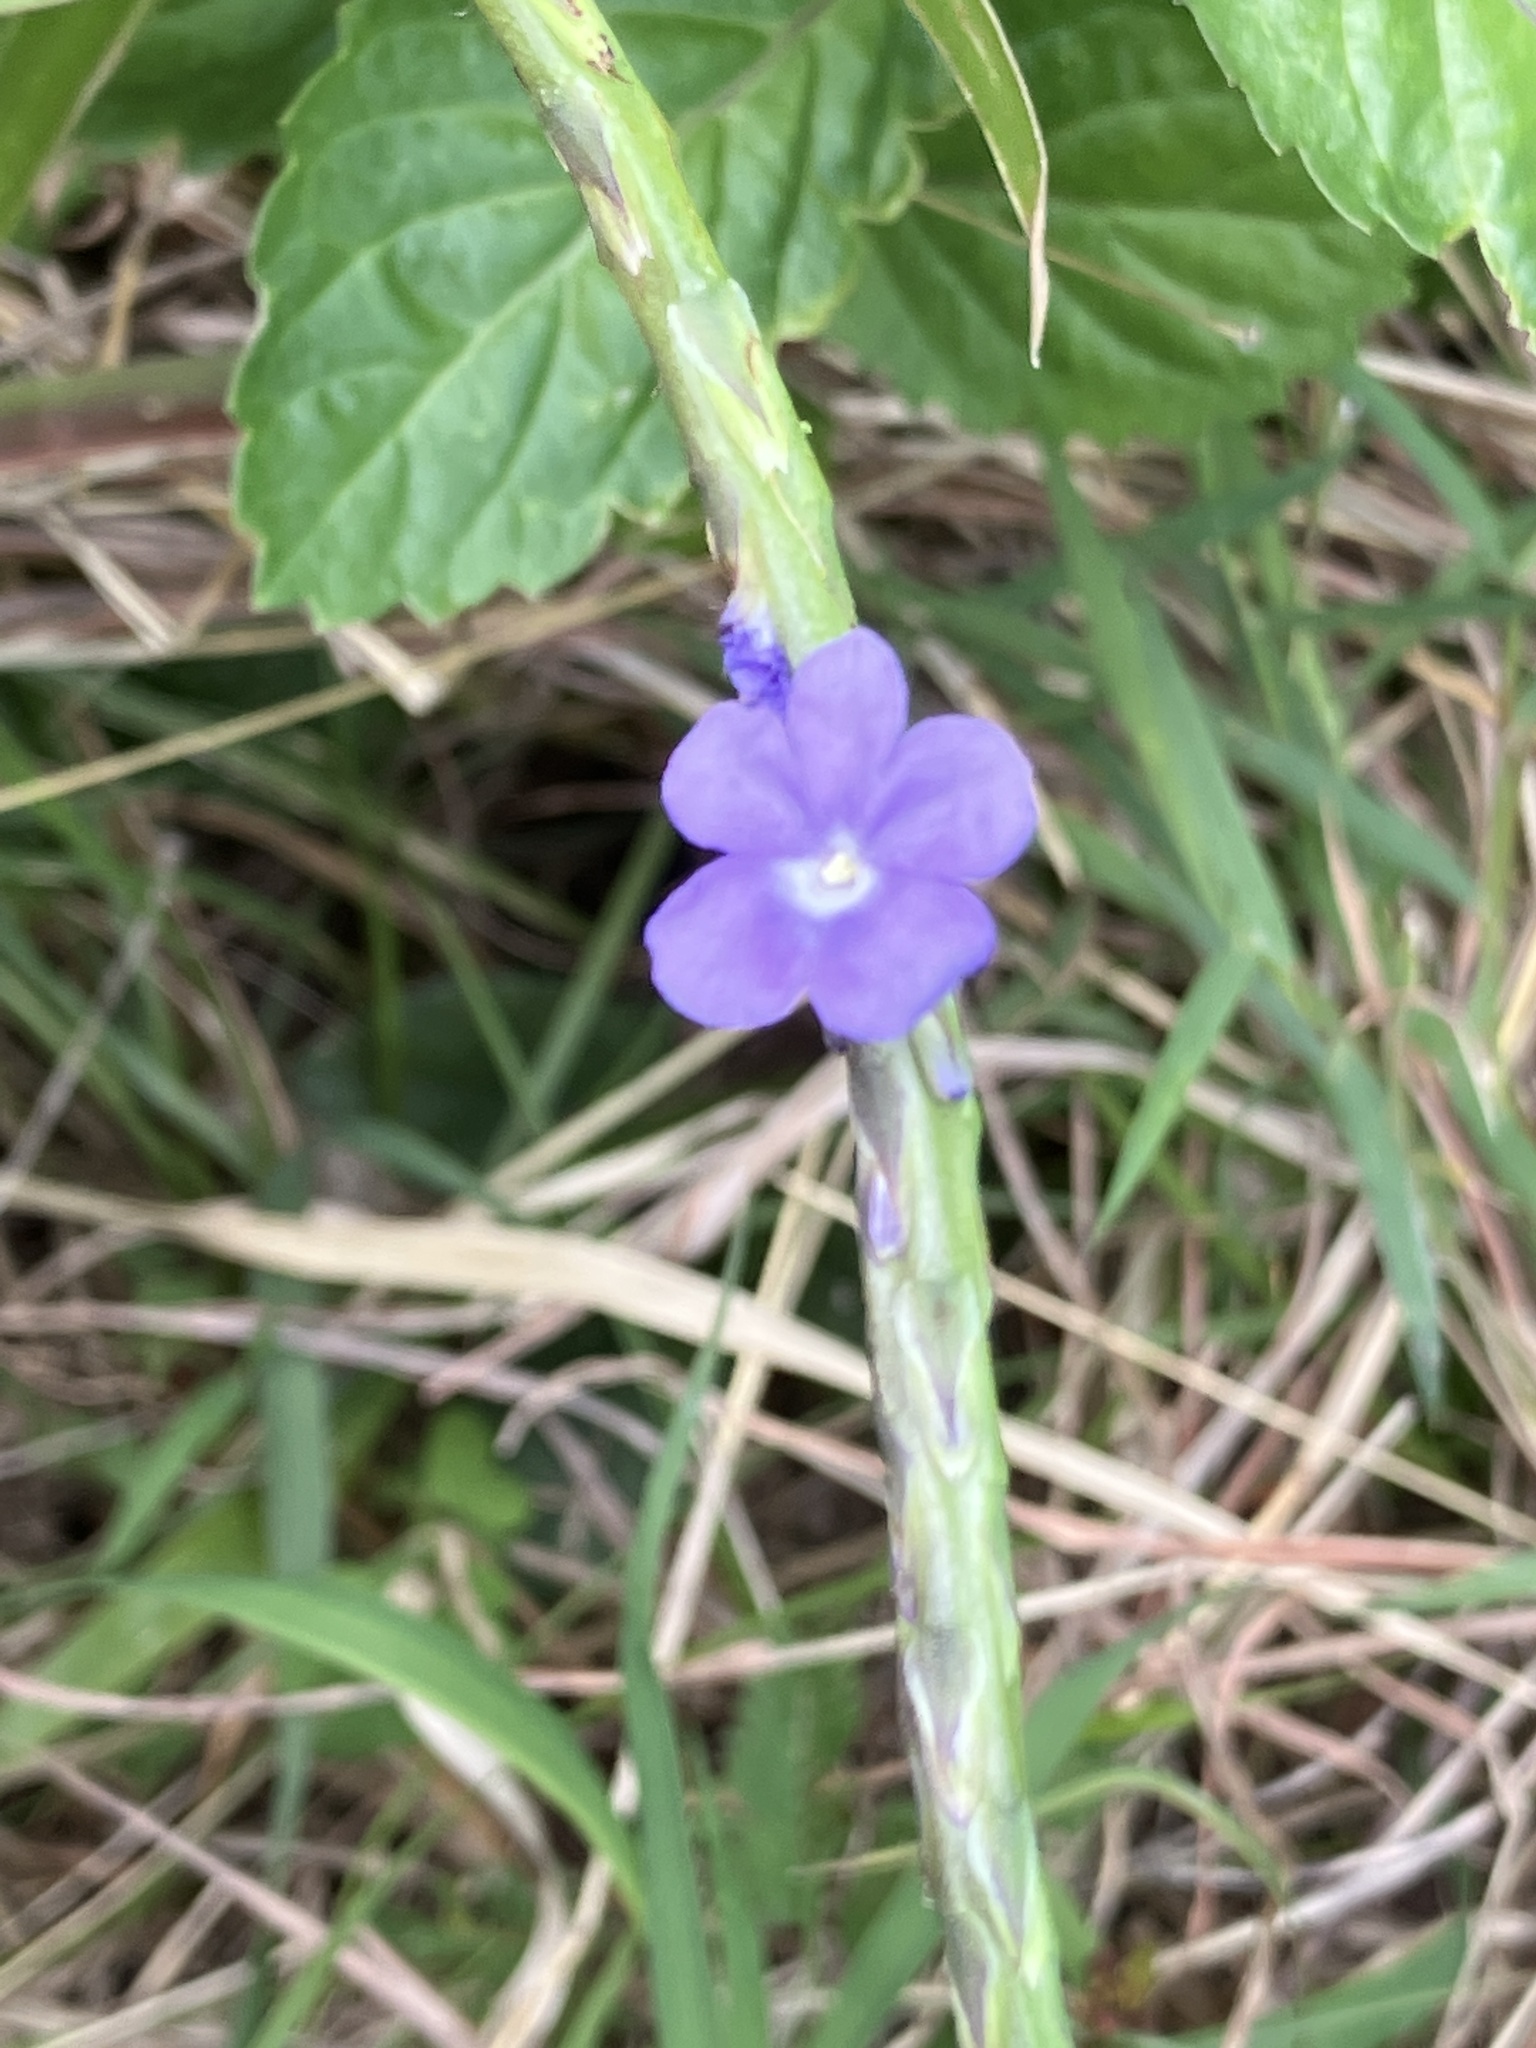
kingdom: Plantae
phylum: Tracheophyta
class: Magnoliopsida
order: Lamiales
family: Verbenaceae
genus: Stachytarpheta
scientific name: Stachytarpheta jamaicensis
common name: Light-blue snakeweed
